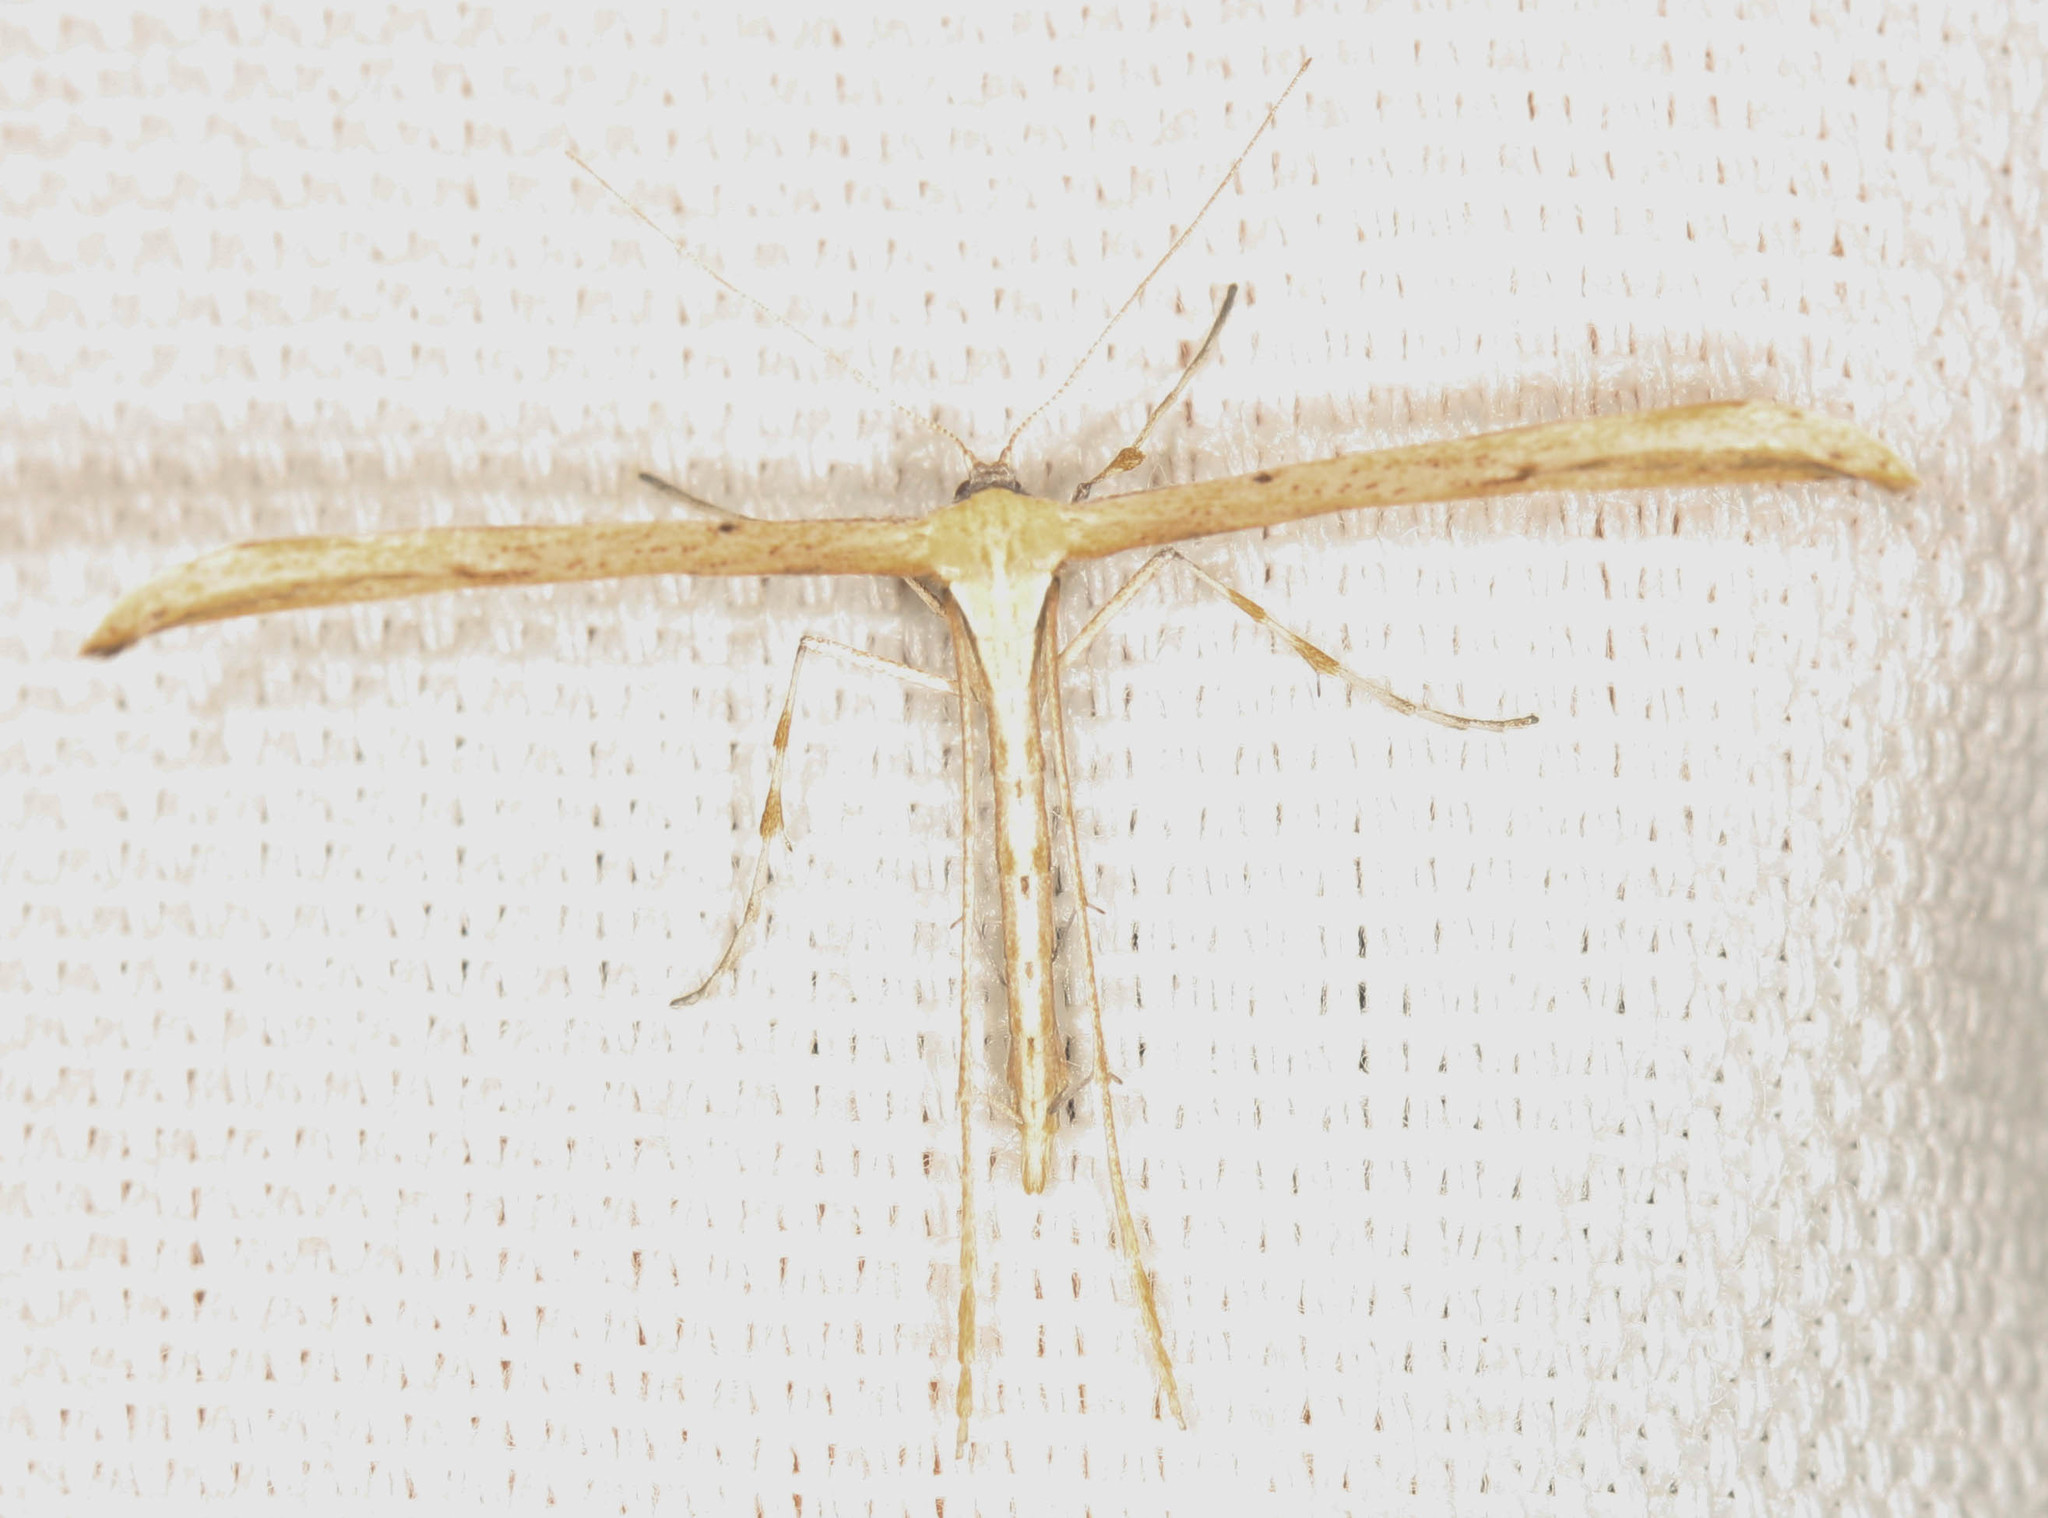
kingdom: Animalia
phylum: Arthropoda
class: Insecta
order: Lepidoptera
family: Pterophoridae
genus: Emmelina
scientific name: Emmelina monodactyla
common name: Common plume
